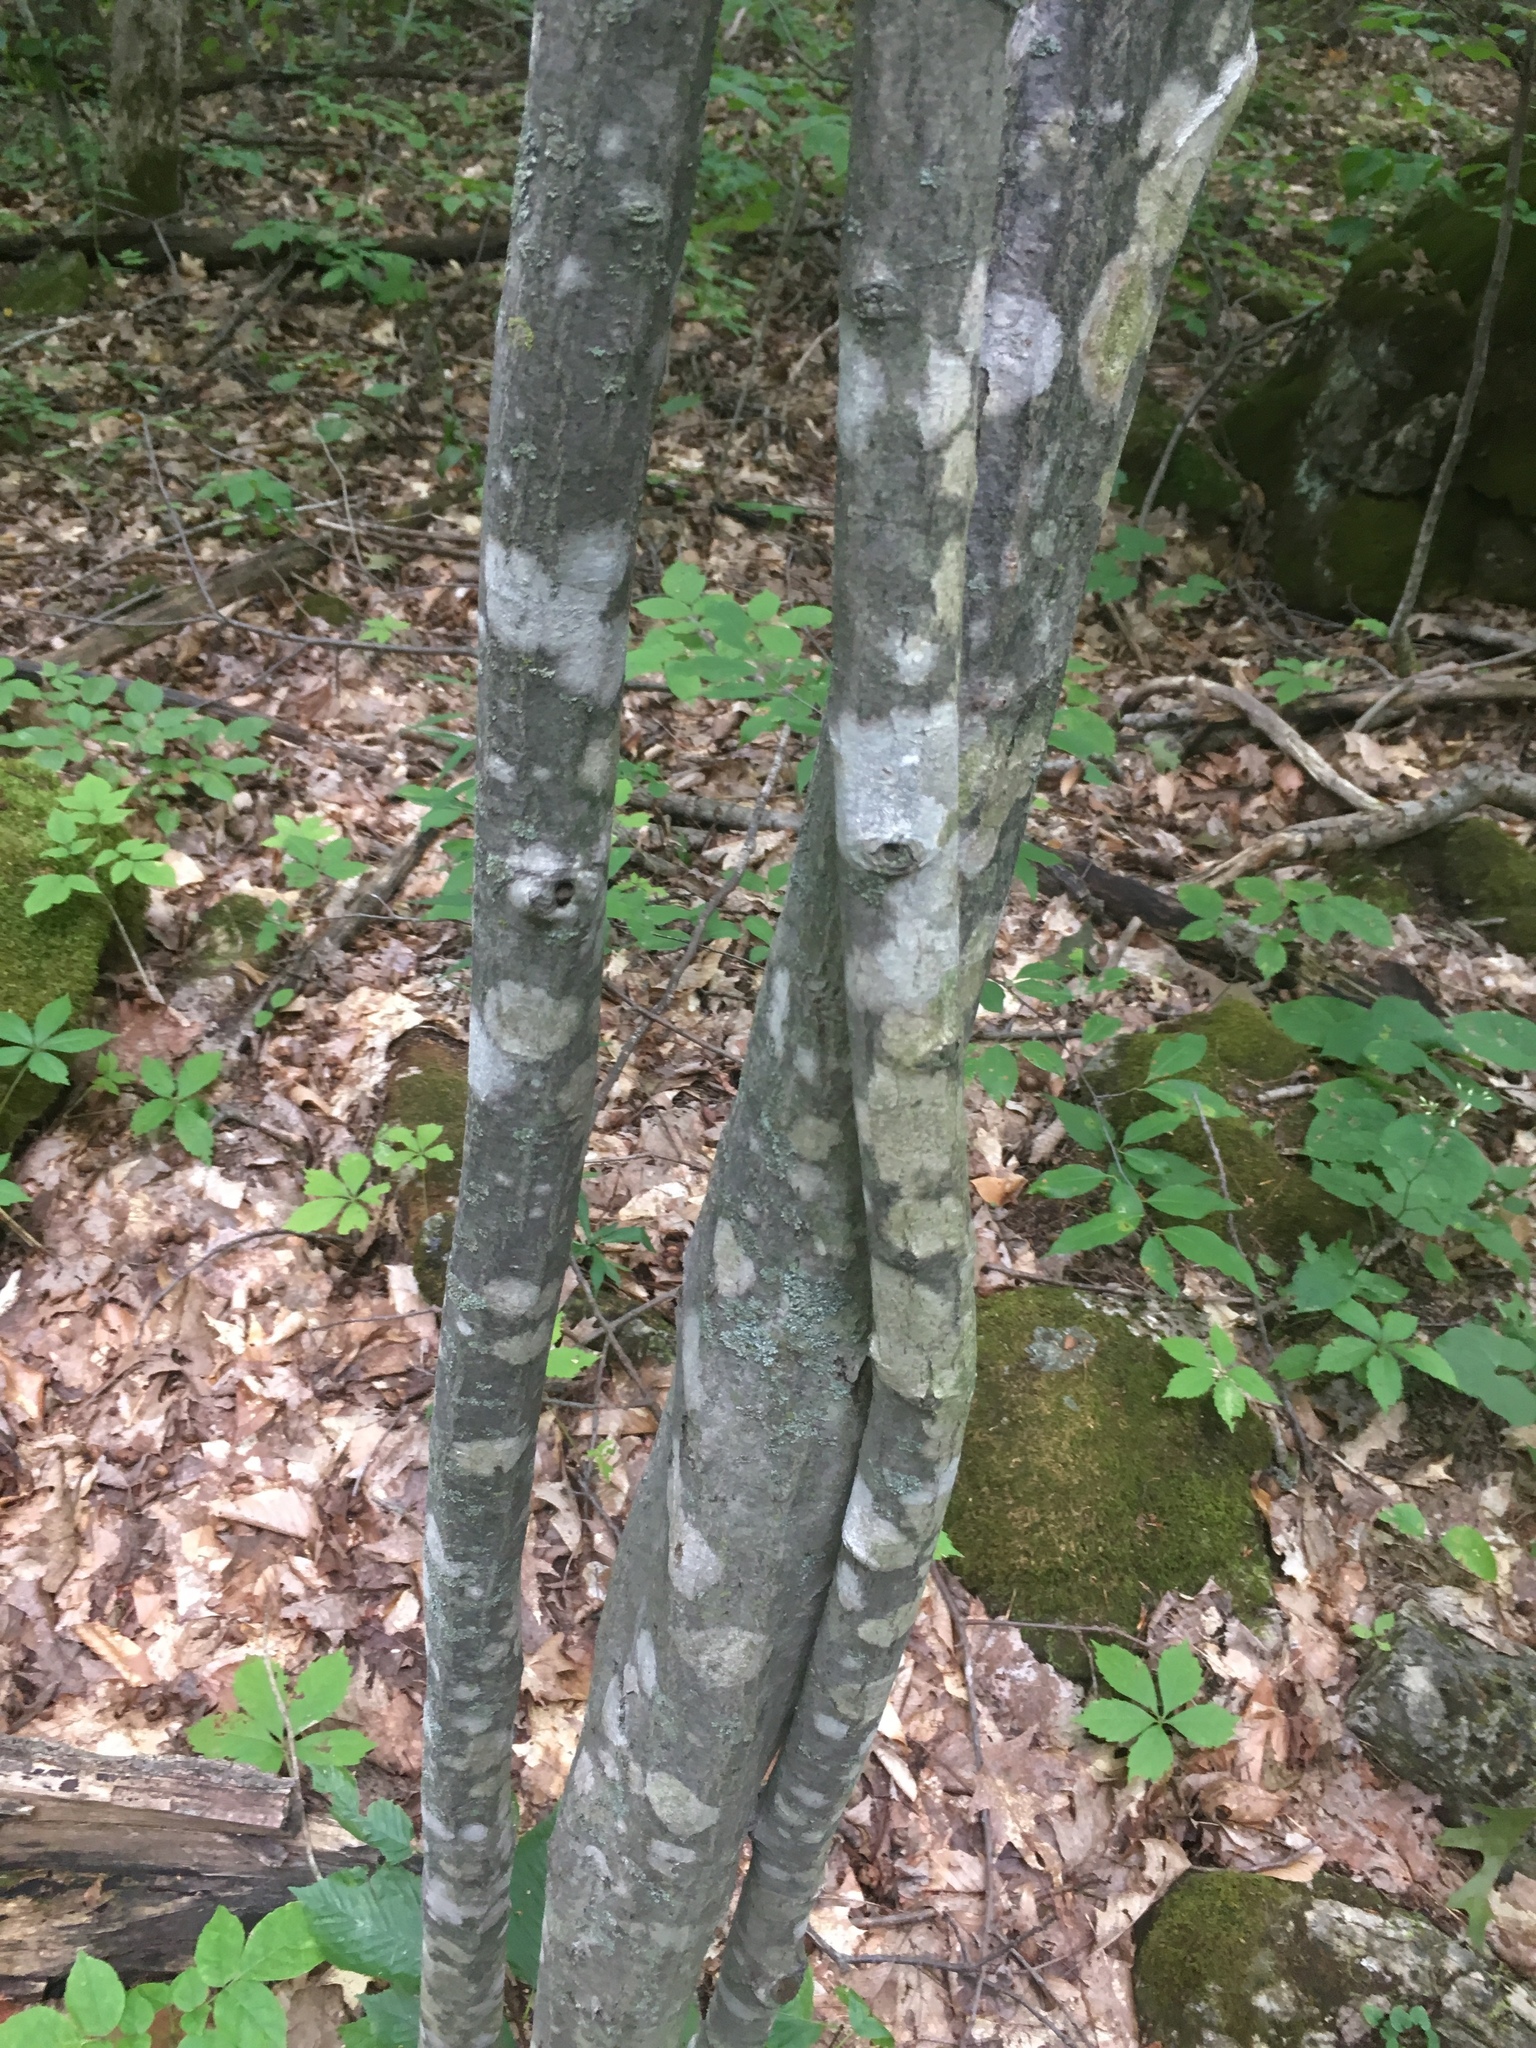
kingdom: Plantae
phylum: Tracheophyta
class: Magnoliopsida
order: Fagales
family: Betulaceae
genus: Carpinus
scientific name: Carpinus caroliniana
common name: American hornbeam
